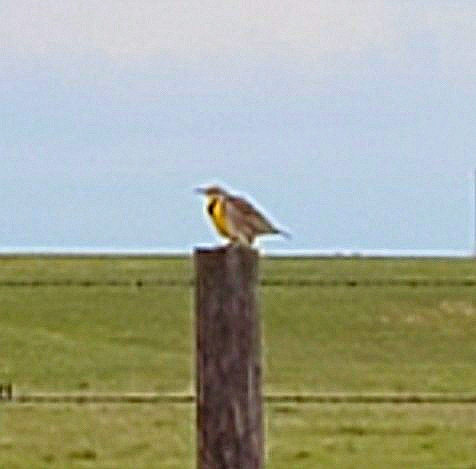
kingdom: Animalia
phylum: Chordata
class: Aves
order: Passeriformes
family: Icteridae
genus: Sturnella
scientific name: Sturnella neglecta
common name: Western meadowlark
